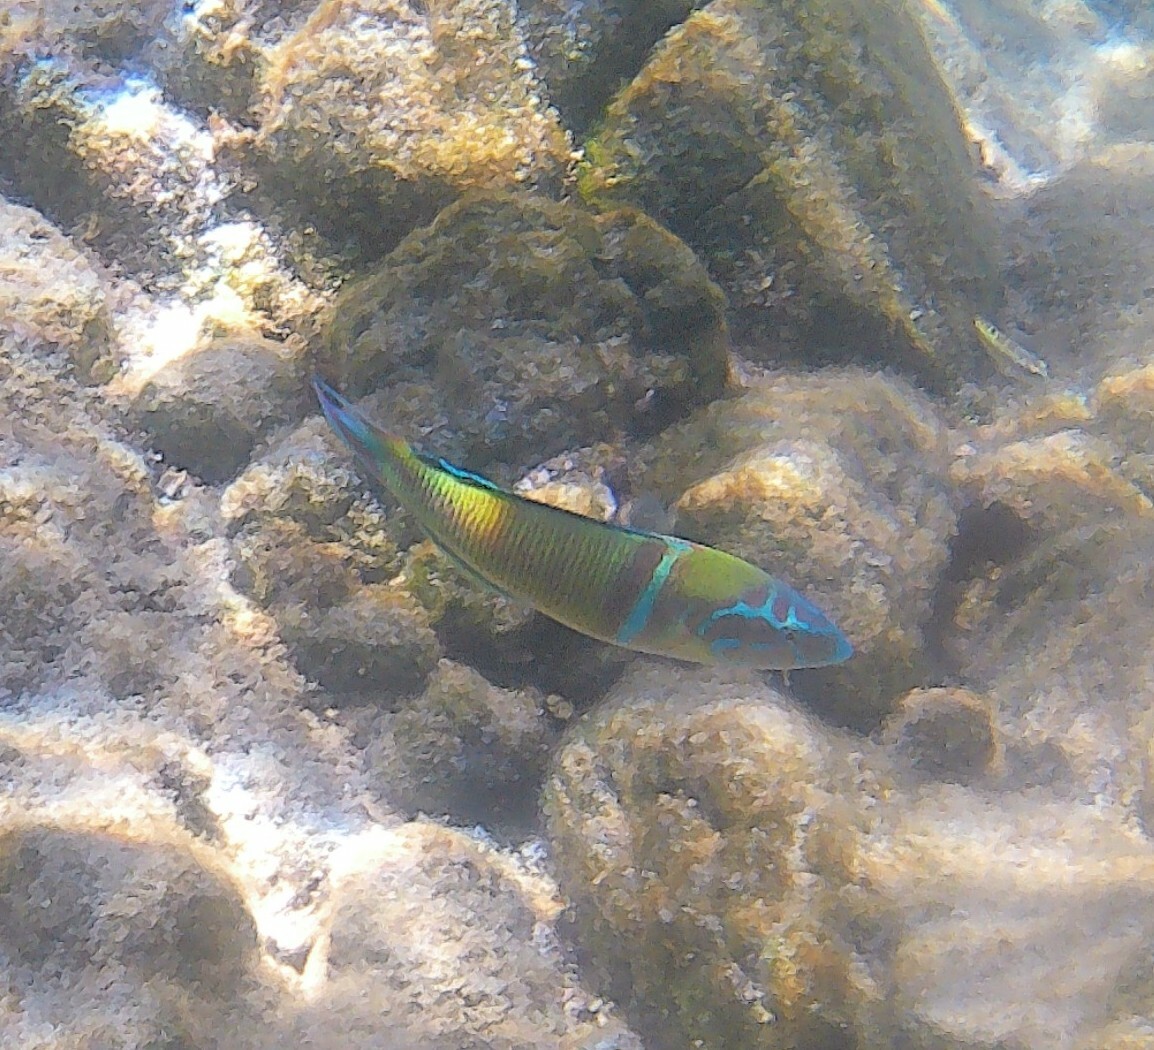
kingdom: Animalia
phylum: Chordata
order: Perciformes
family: Labridae
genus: Thalassoma
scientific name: Thalassoma pavo
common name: Ornate wrasse
